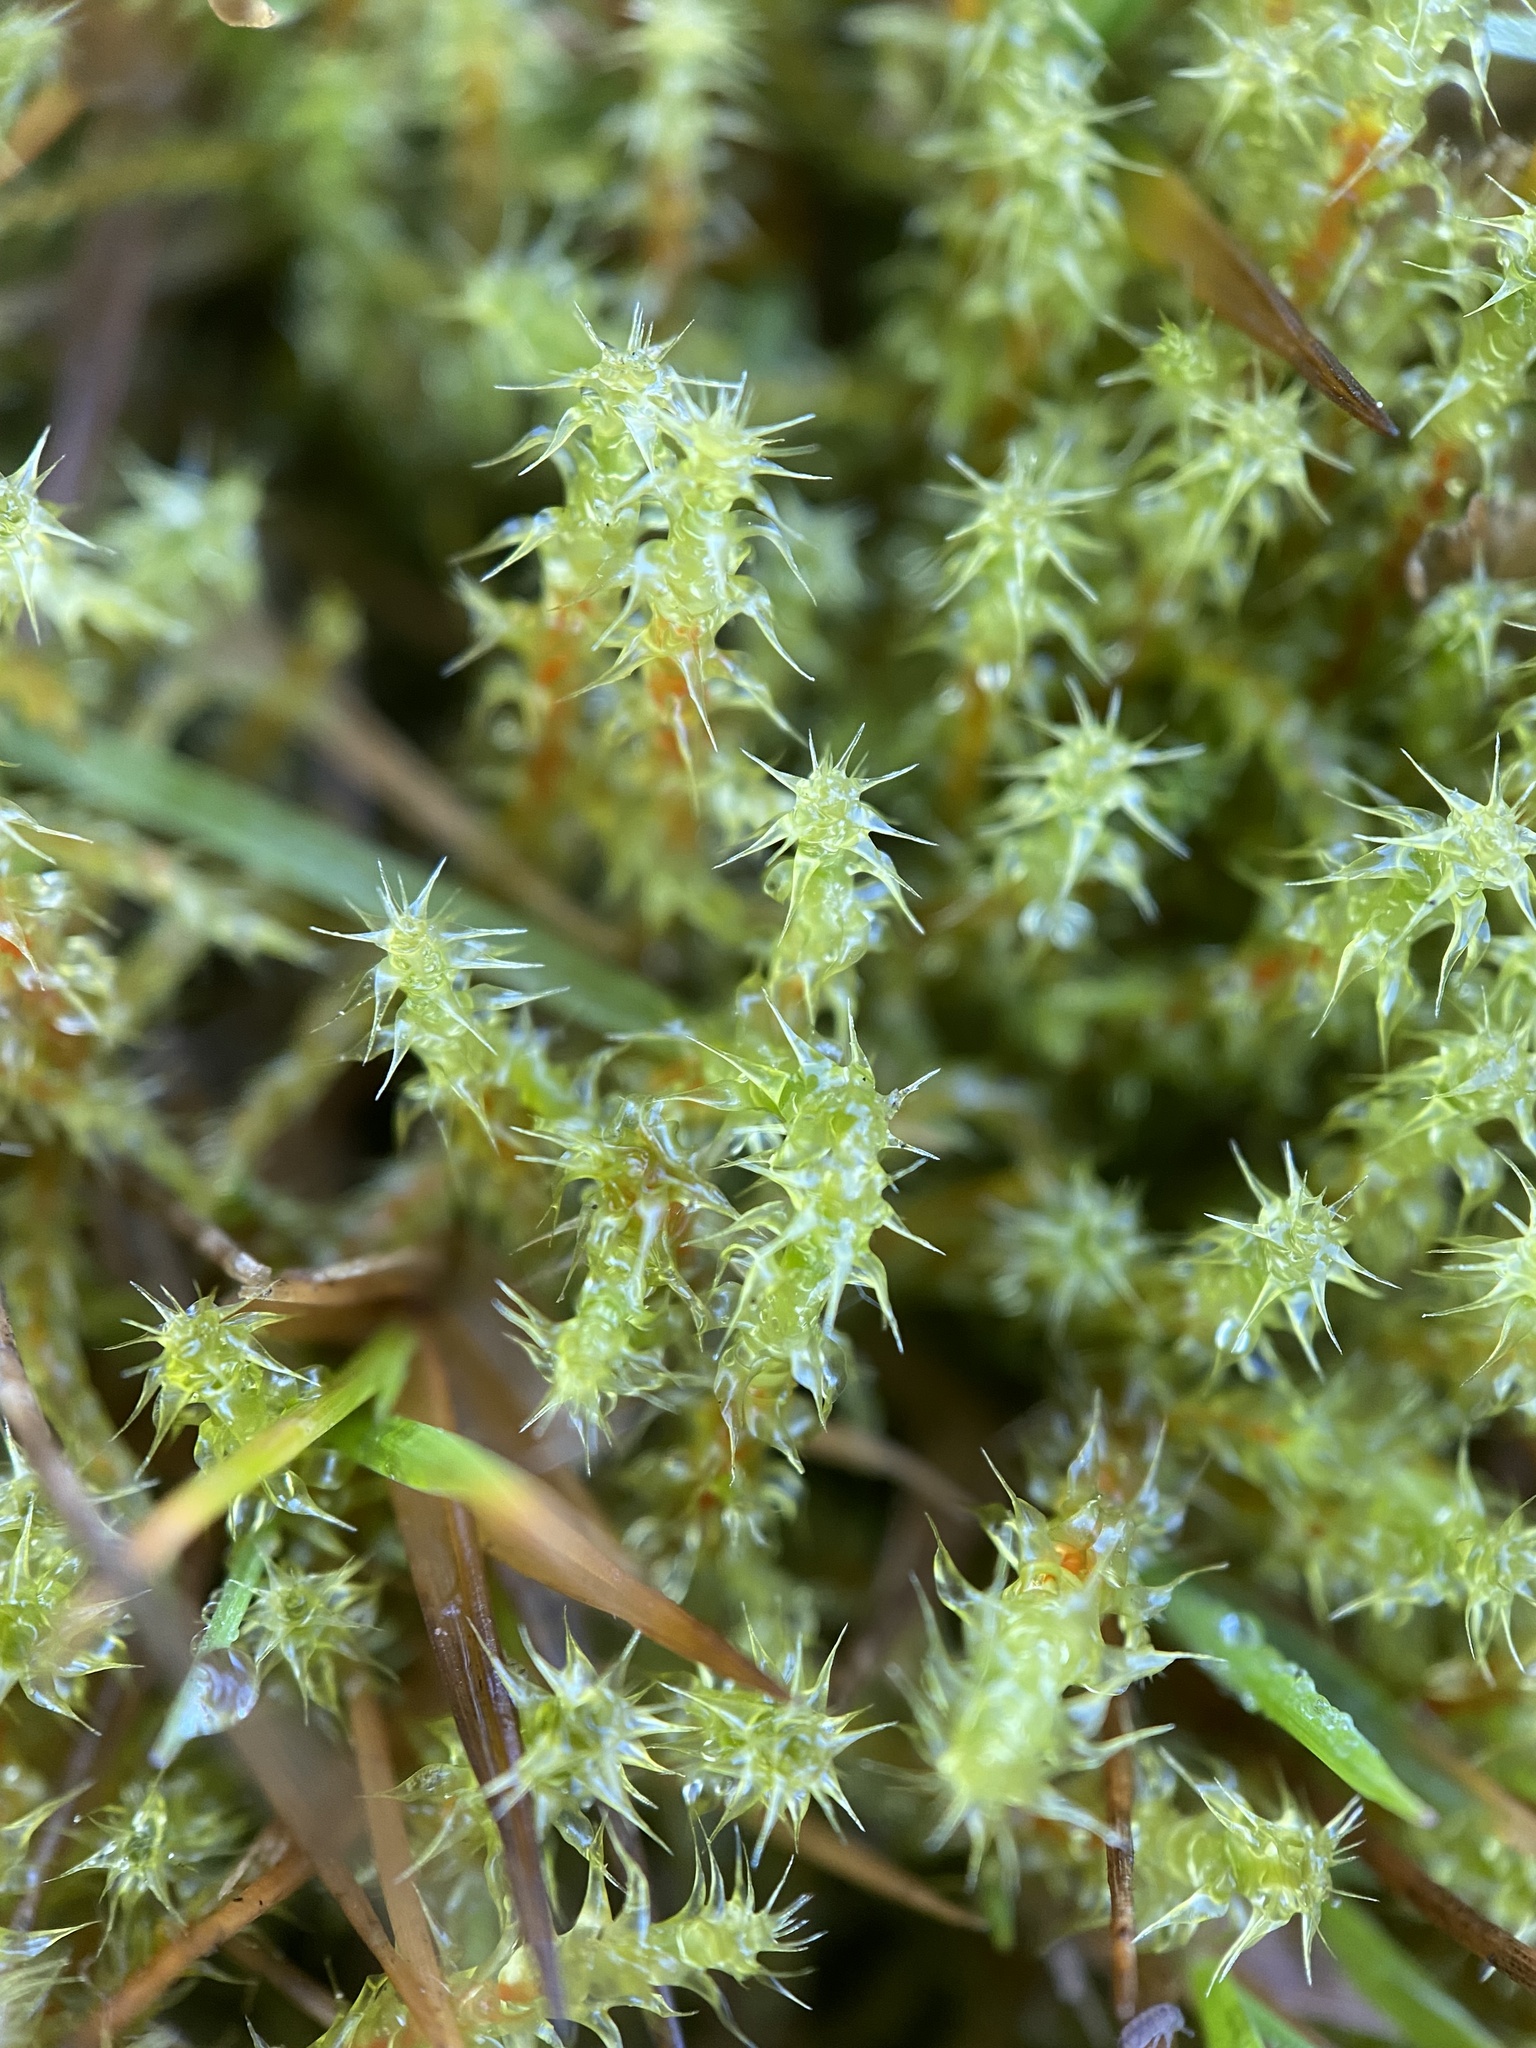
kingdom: Plantae
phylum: Bryophyta
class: Bryopsida
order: Hypnales
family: Hylocomiaceae
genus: Rhytidiadelphus
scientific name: Rhytidiadelphus squarrosus
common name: Springy turf-moss
